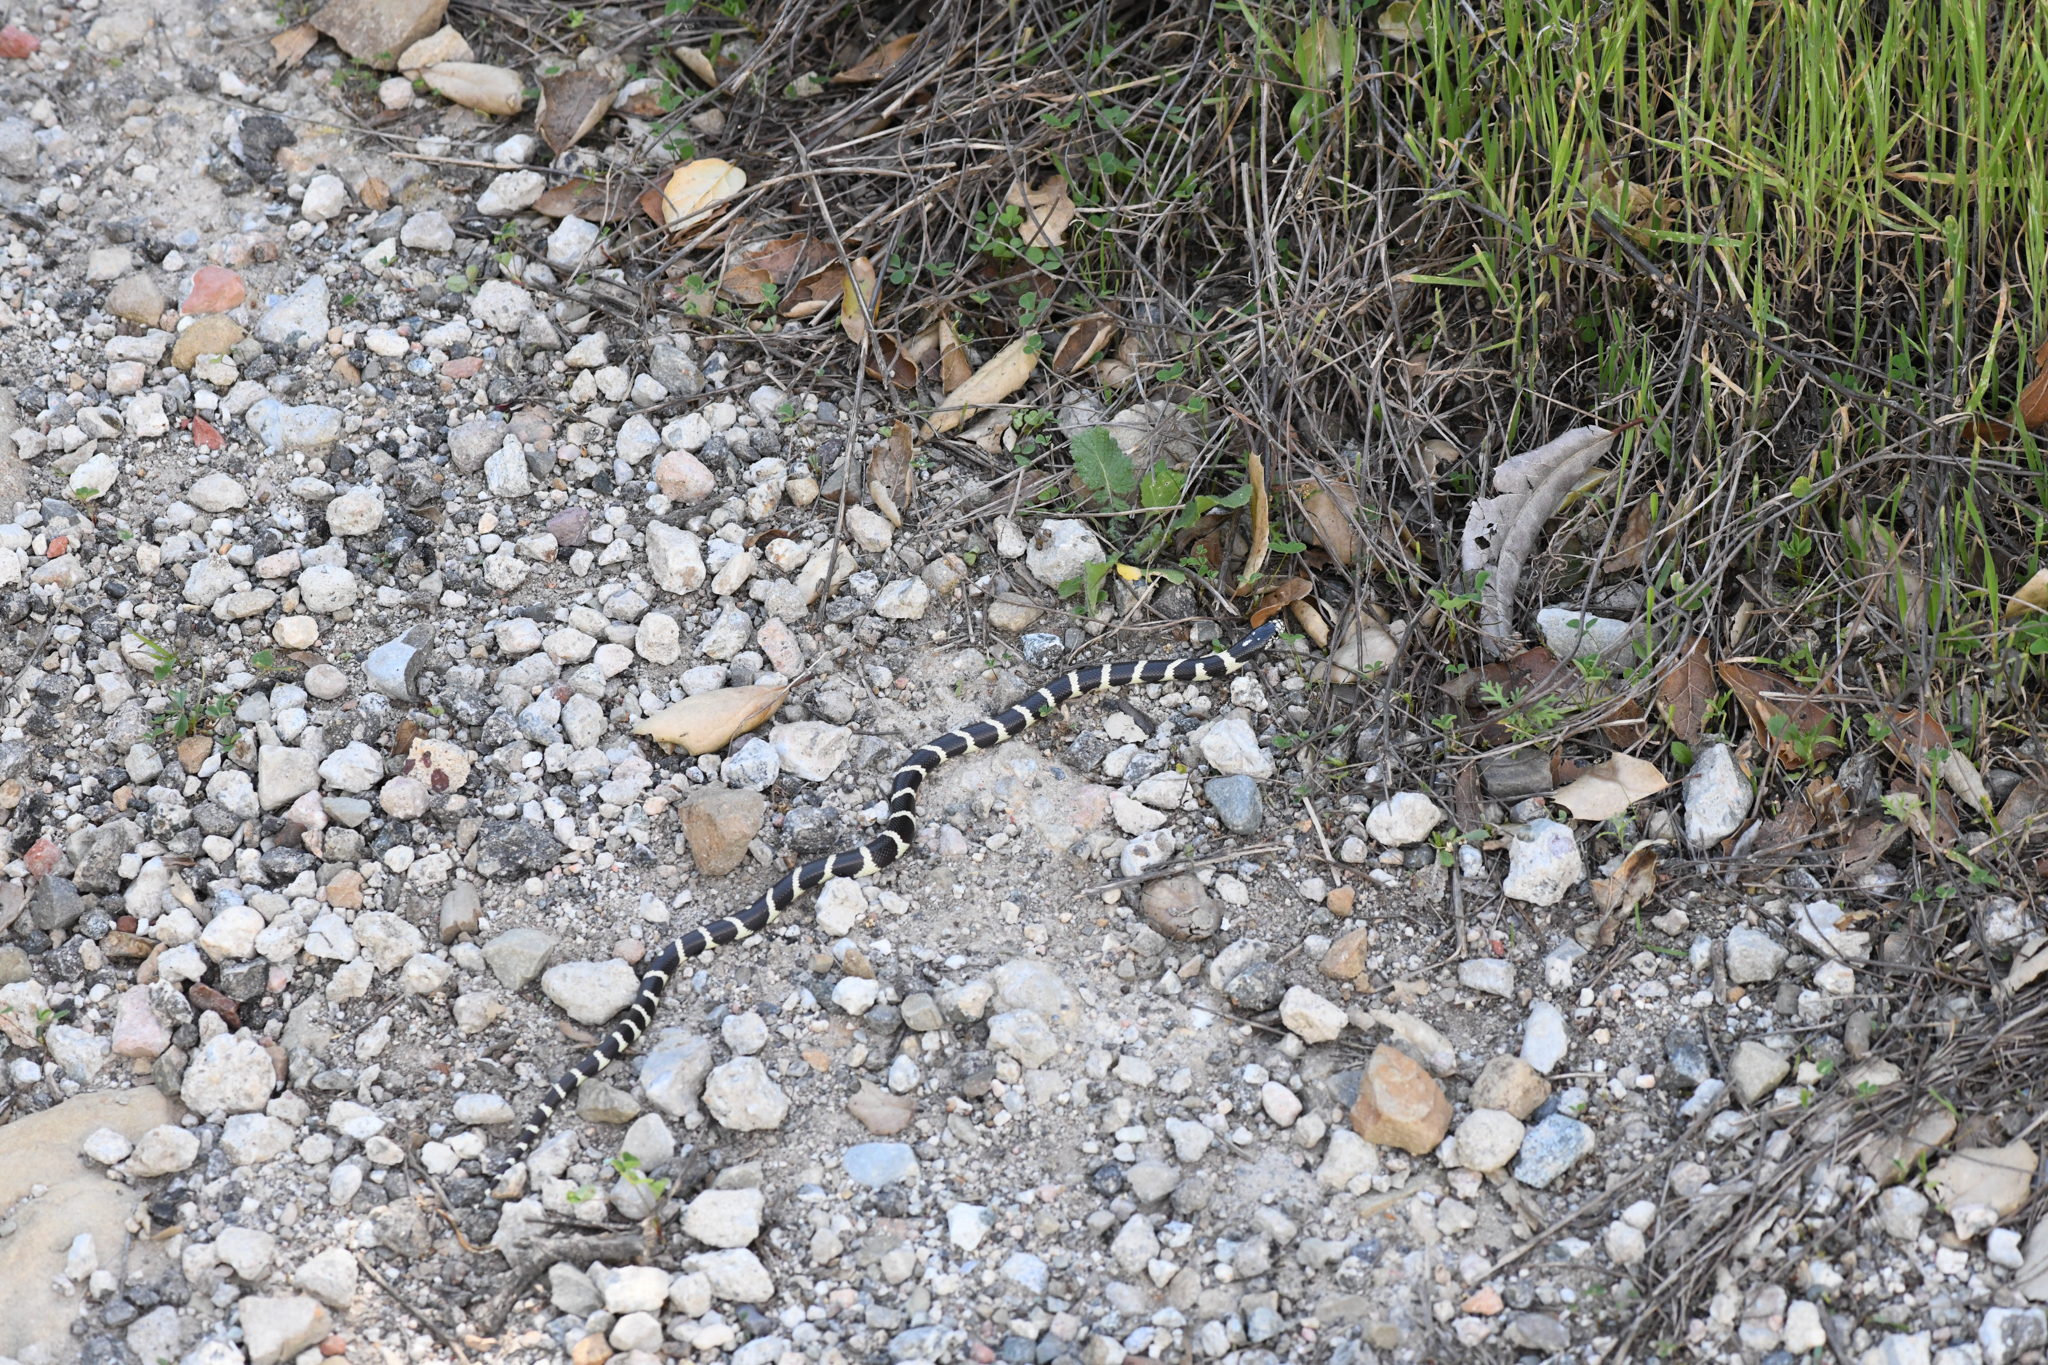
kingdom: Animalia
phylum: Chordata
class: Squamata
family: Colubridae
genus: Lampropeltis
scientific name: Lampropeltis californiae
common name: California kingsnake
